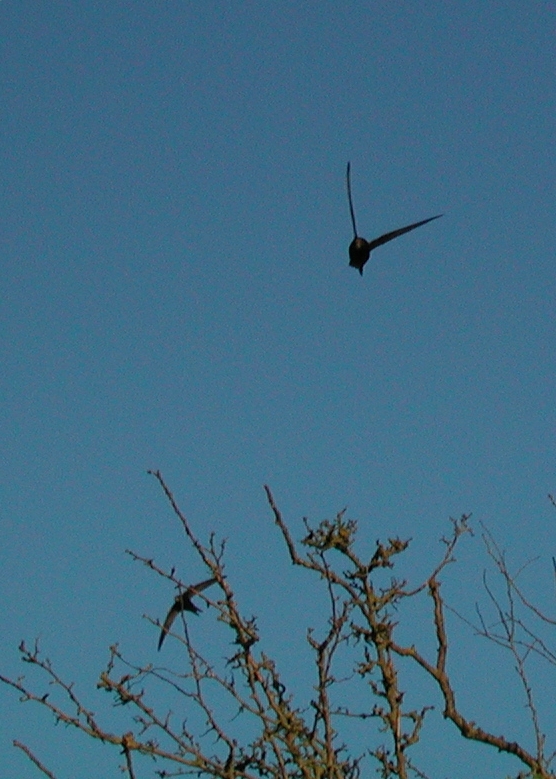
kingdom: Animalia
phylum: Chordata
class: Aves
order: Apodiformes
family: Apodidae
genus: Apus
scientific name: Apus apus
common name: Common swift
